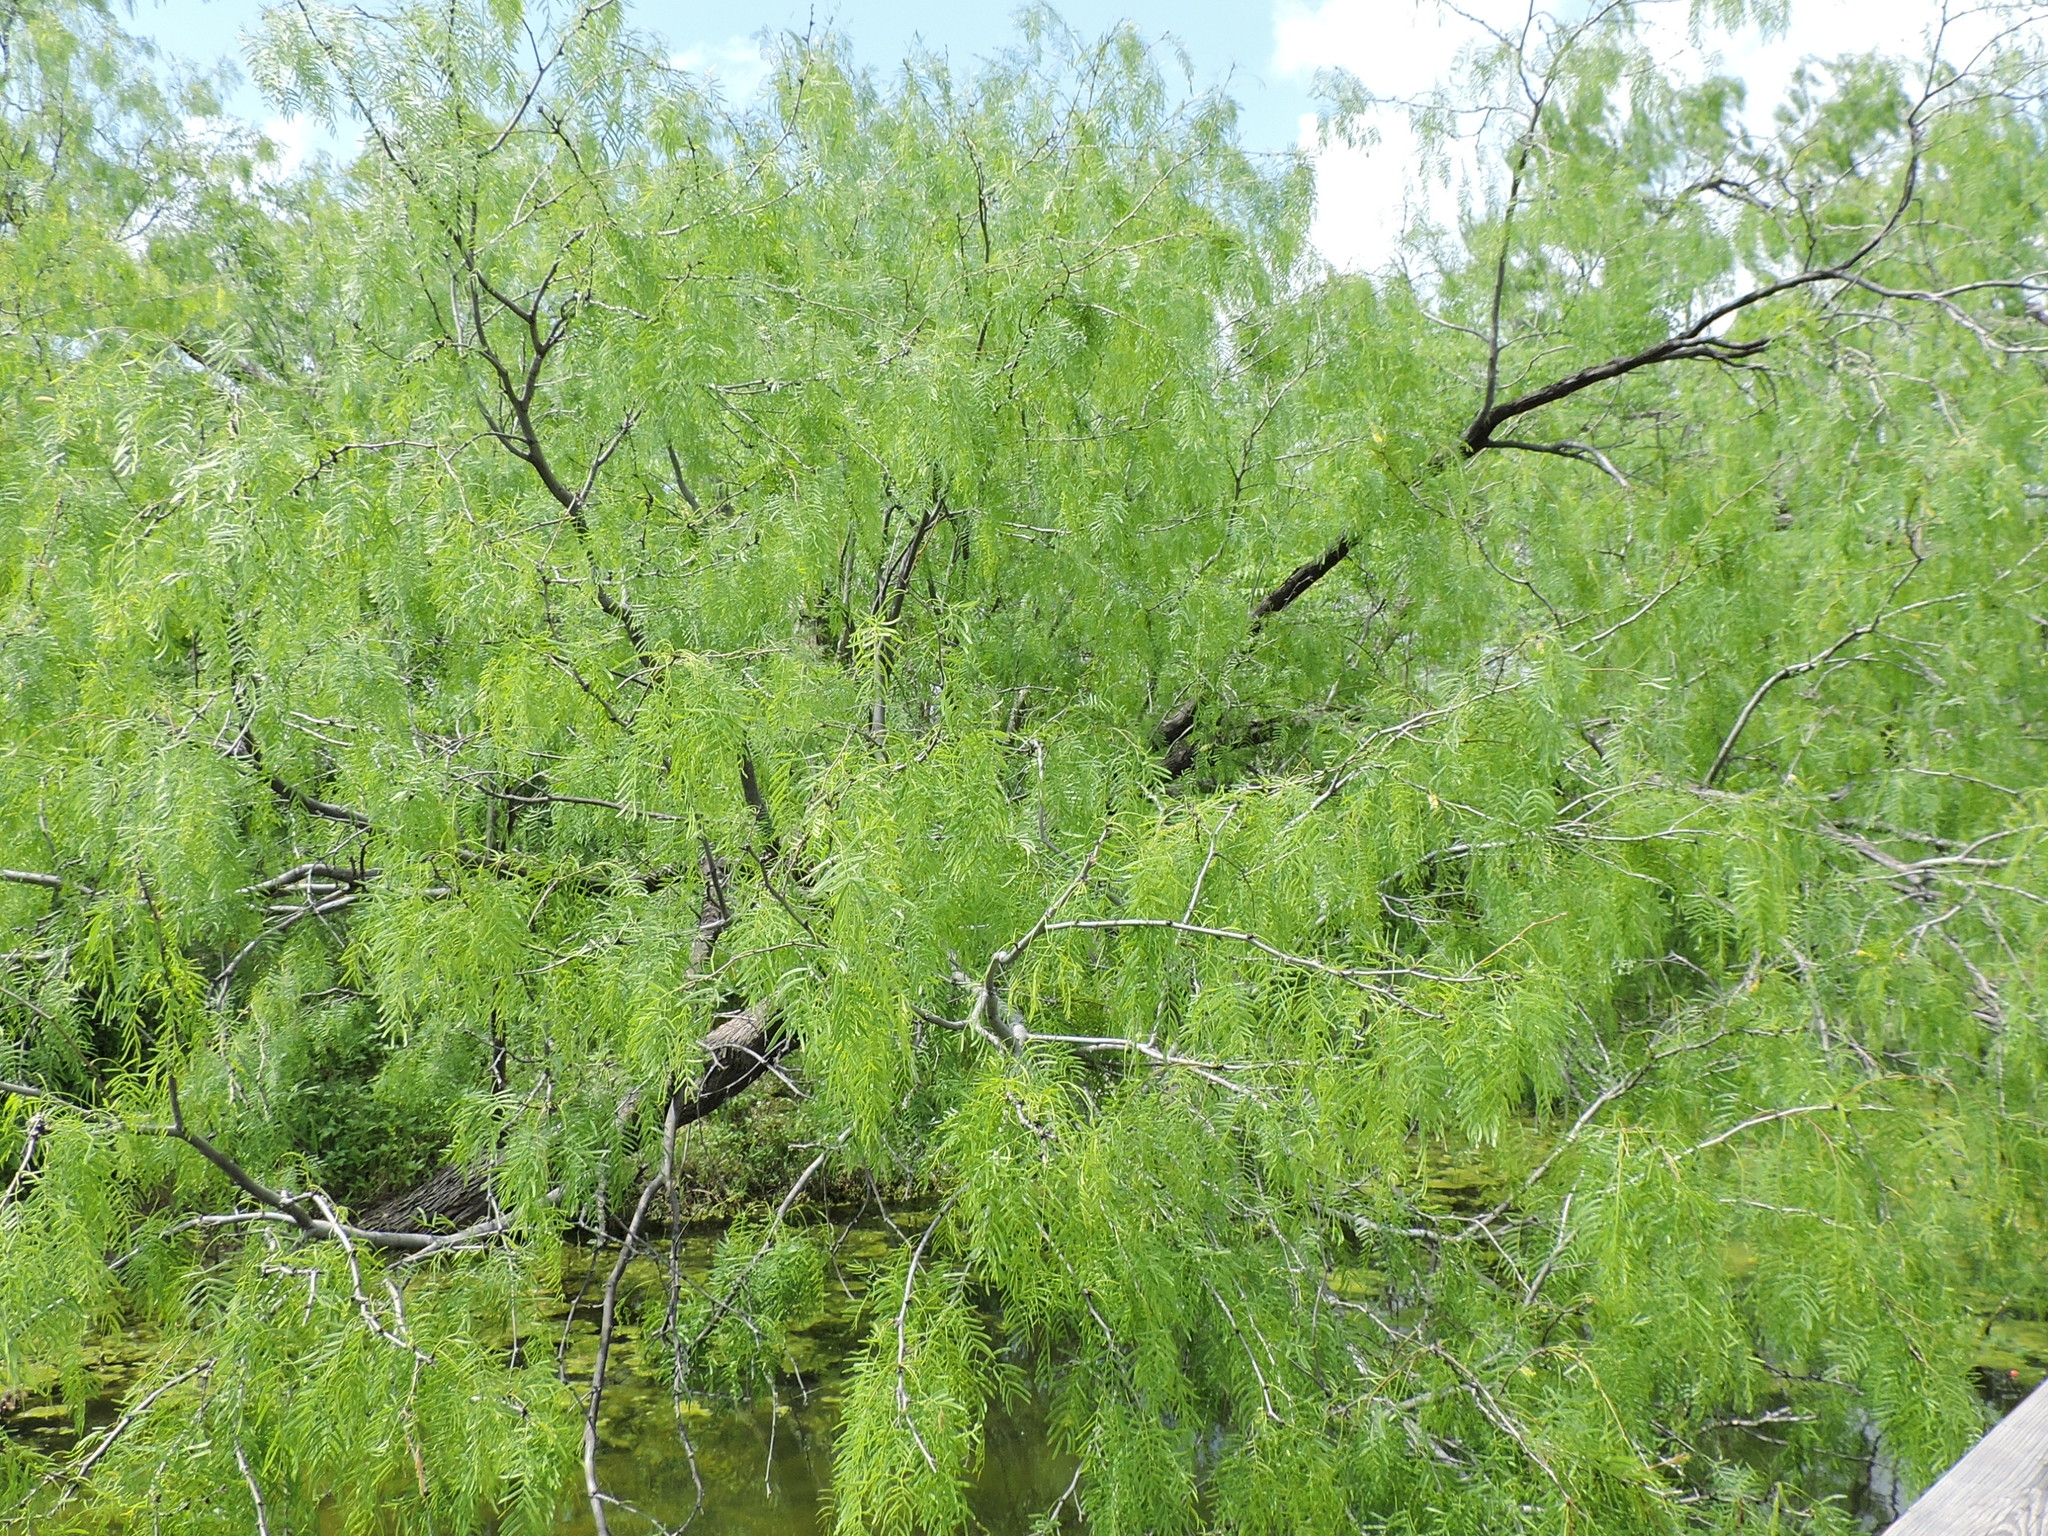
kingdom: Plantae
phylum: Tracheophyta
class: Magnoliopsida
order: Fabales
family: Fabaceae
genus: Prosopis
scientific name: Prosopis glandulosa
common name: Honey mesquite
